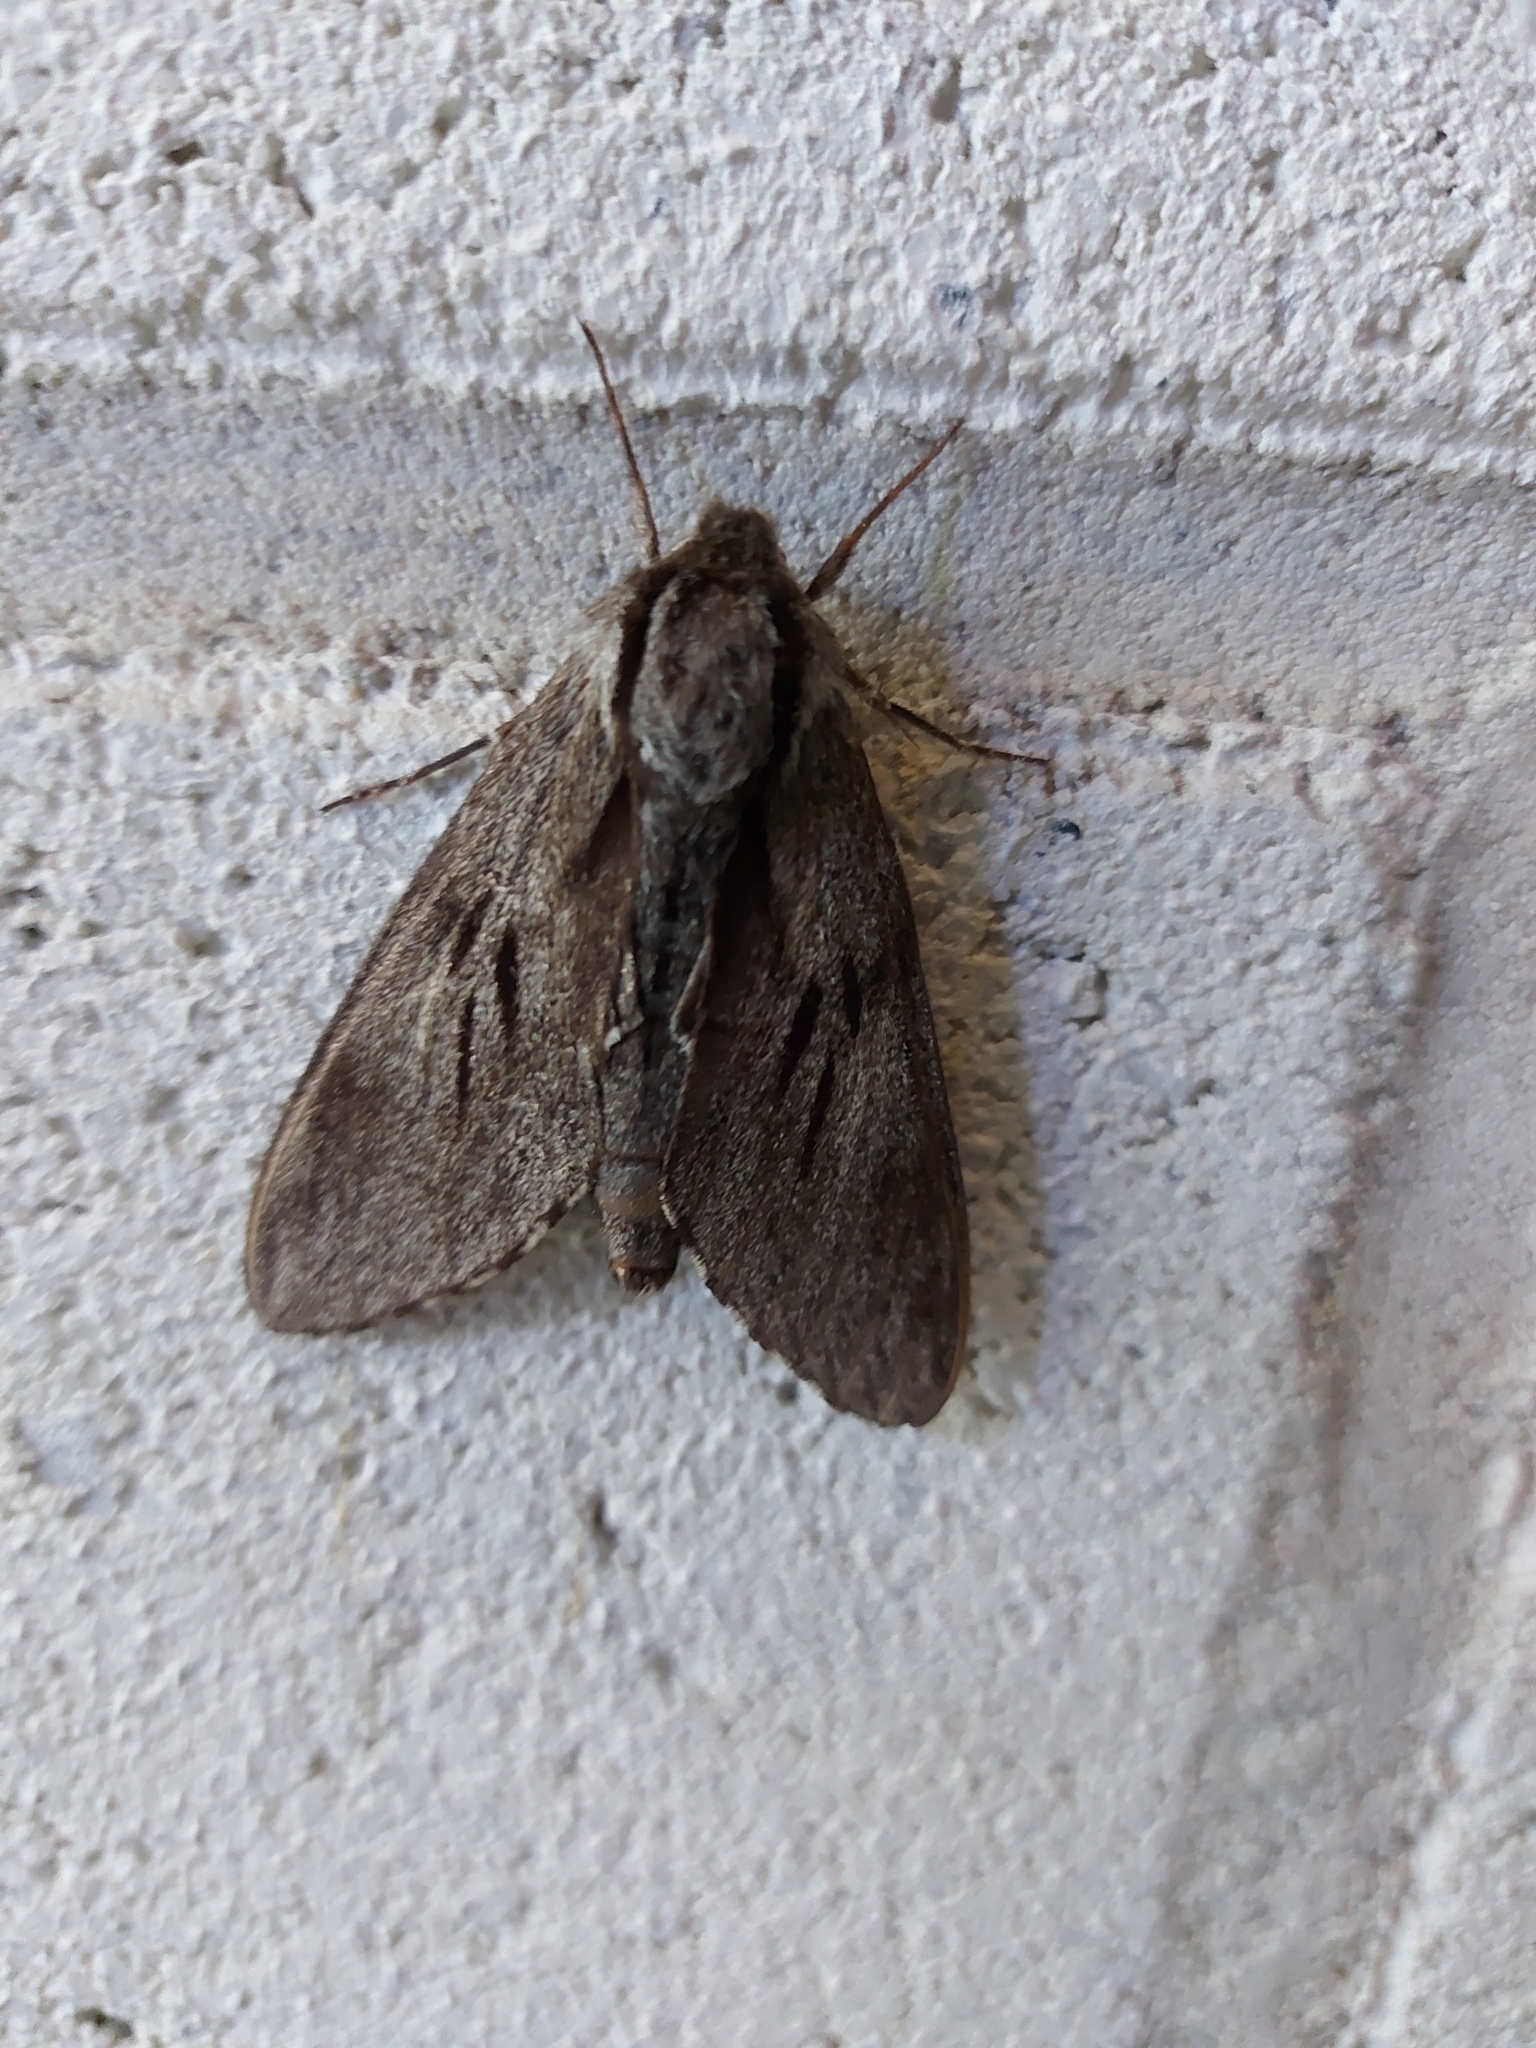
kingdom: Animalia
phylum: Arthropoda
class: Insecta
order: Lepidoptera
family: Sphingidae
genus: Sphinx
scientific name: Sphinx pinastri
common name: Pine hawk-moth
